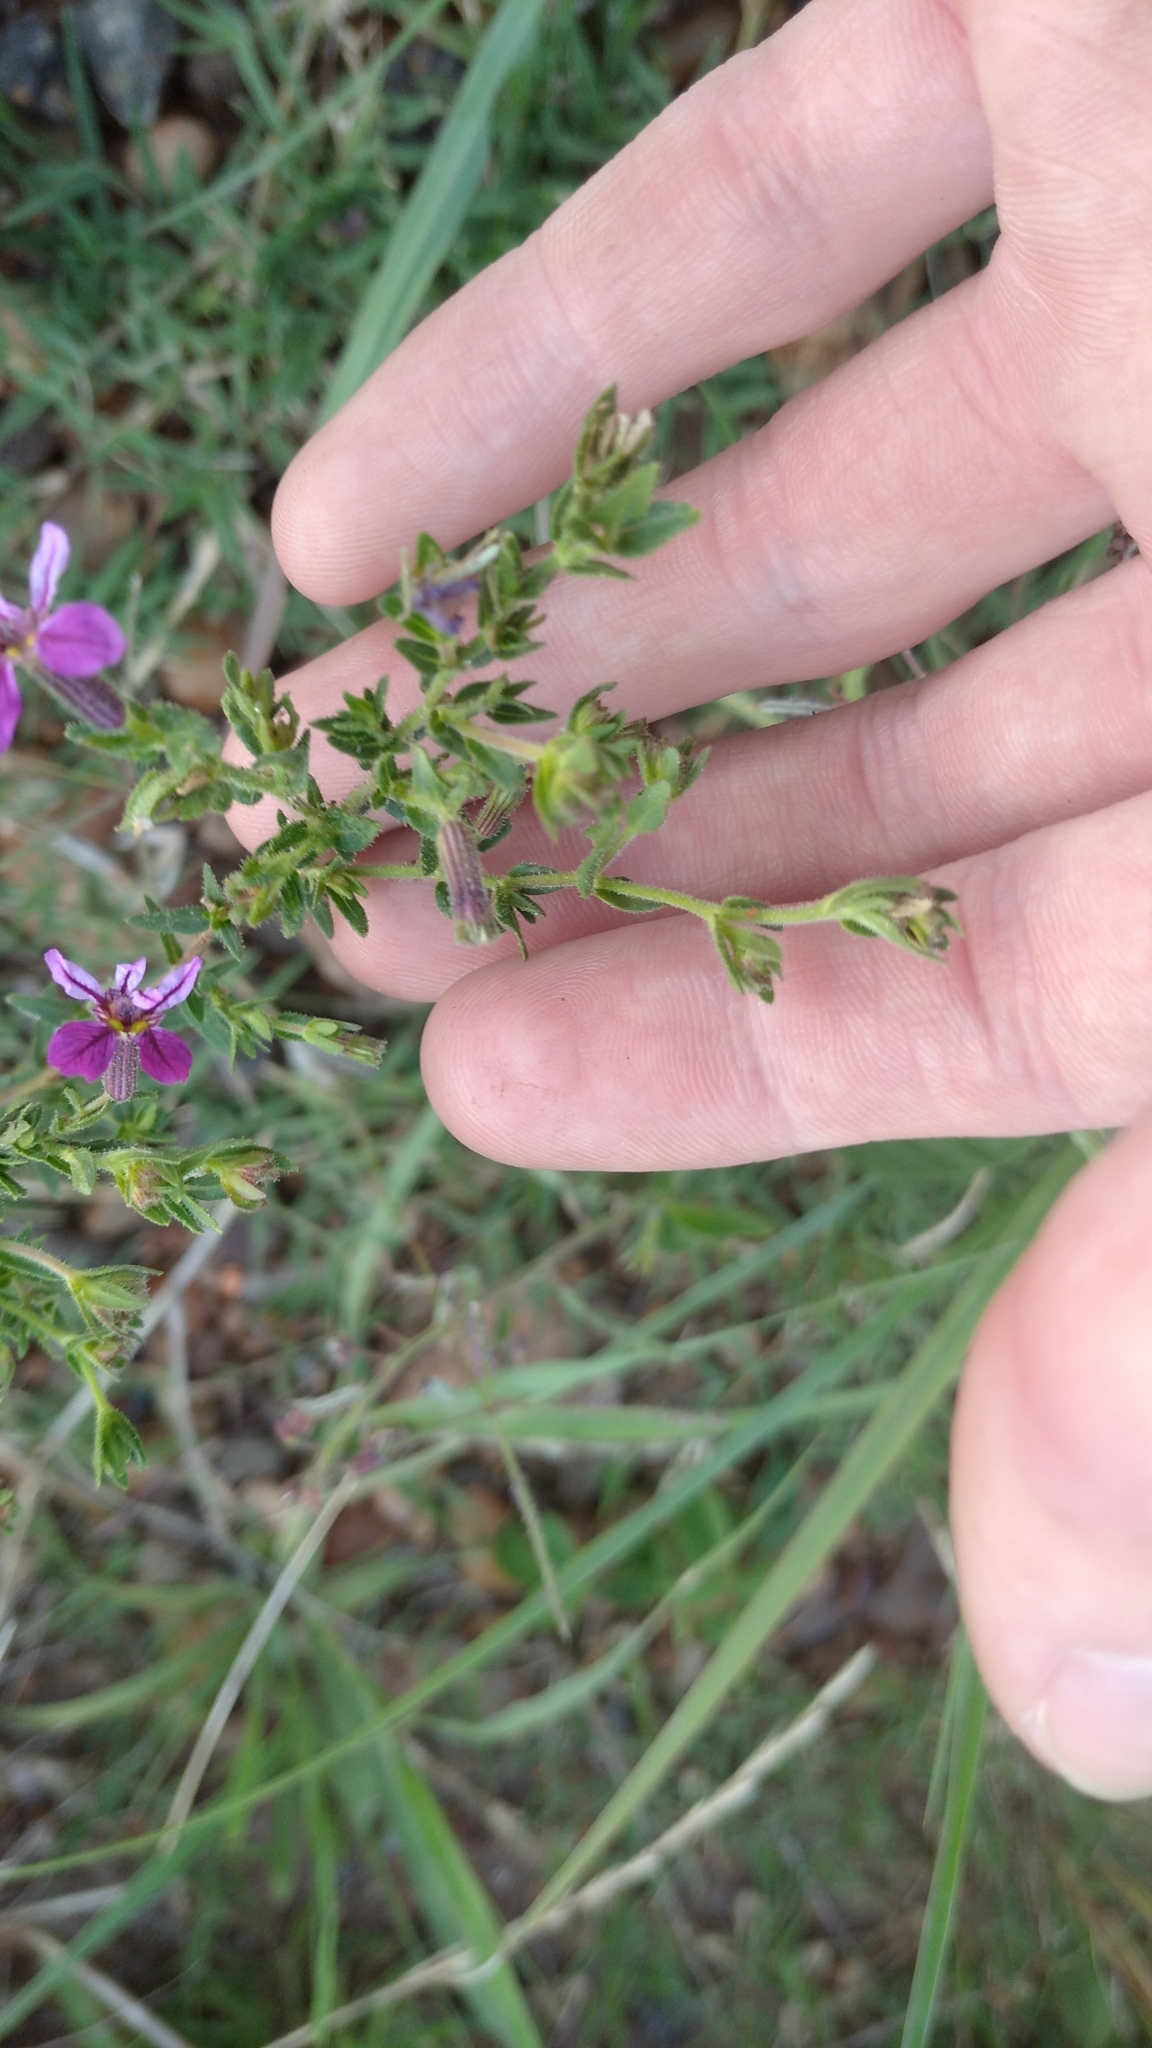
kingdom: Plantae
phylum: Tracheophyta
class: Magnoliopsida
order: Myrtales
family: Lythraceae
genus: Cuphea
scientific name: Cuphea glutinosa
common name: Sticky waxweed
